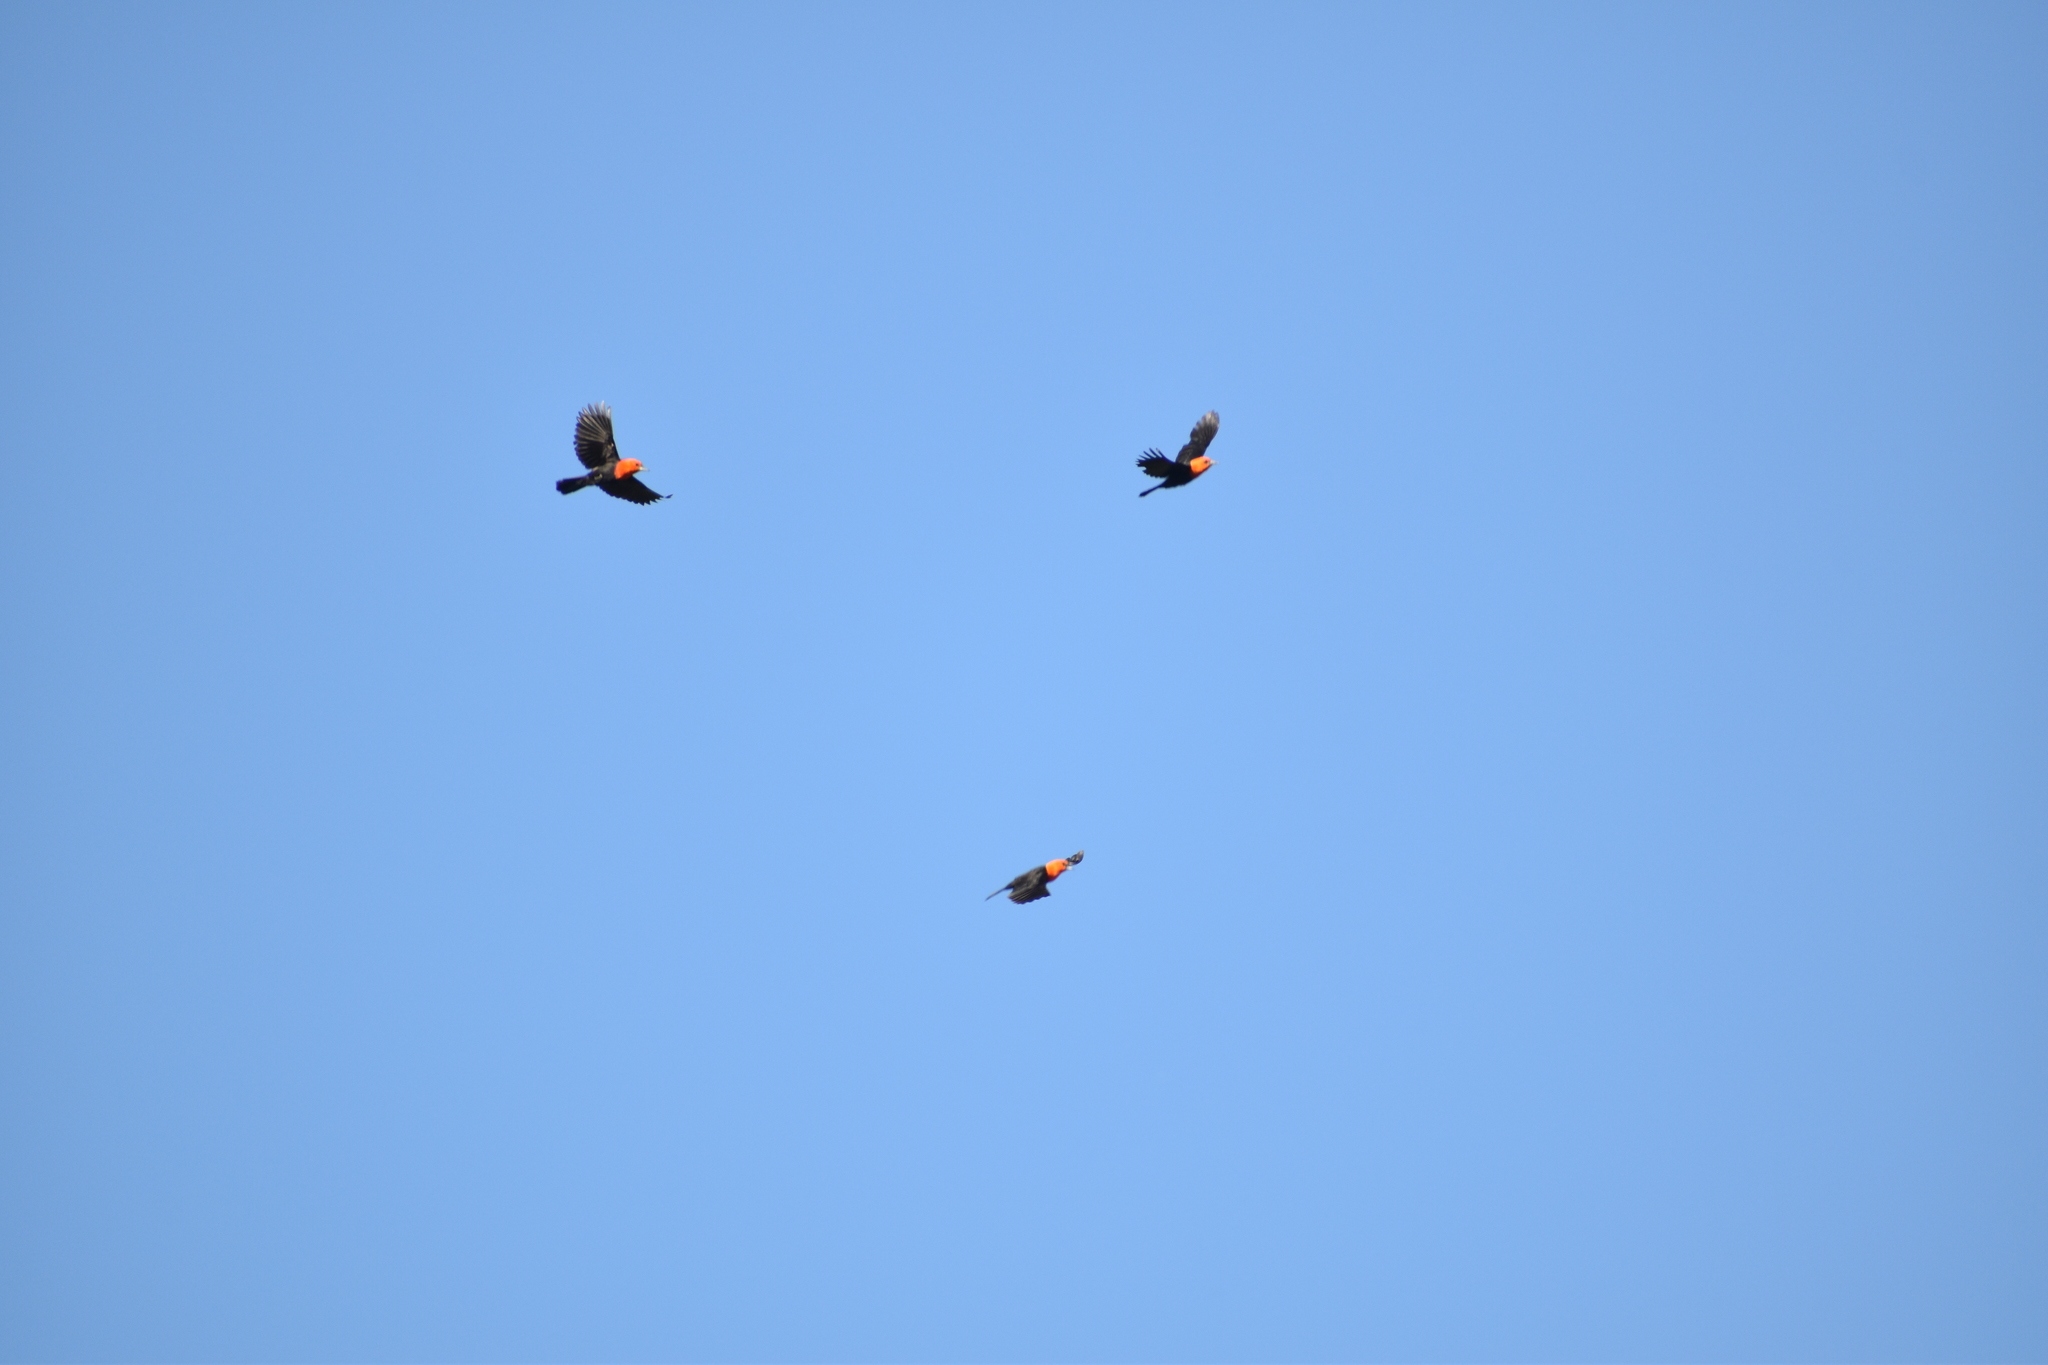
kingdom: Animalia
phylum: Chordata
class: Aves
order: Passeriformes
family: Icteridae
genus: Amblyramphus
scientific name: Amblyramphus holosericeus
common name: Scarlet-headed blackbird
